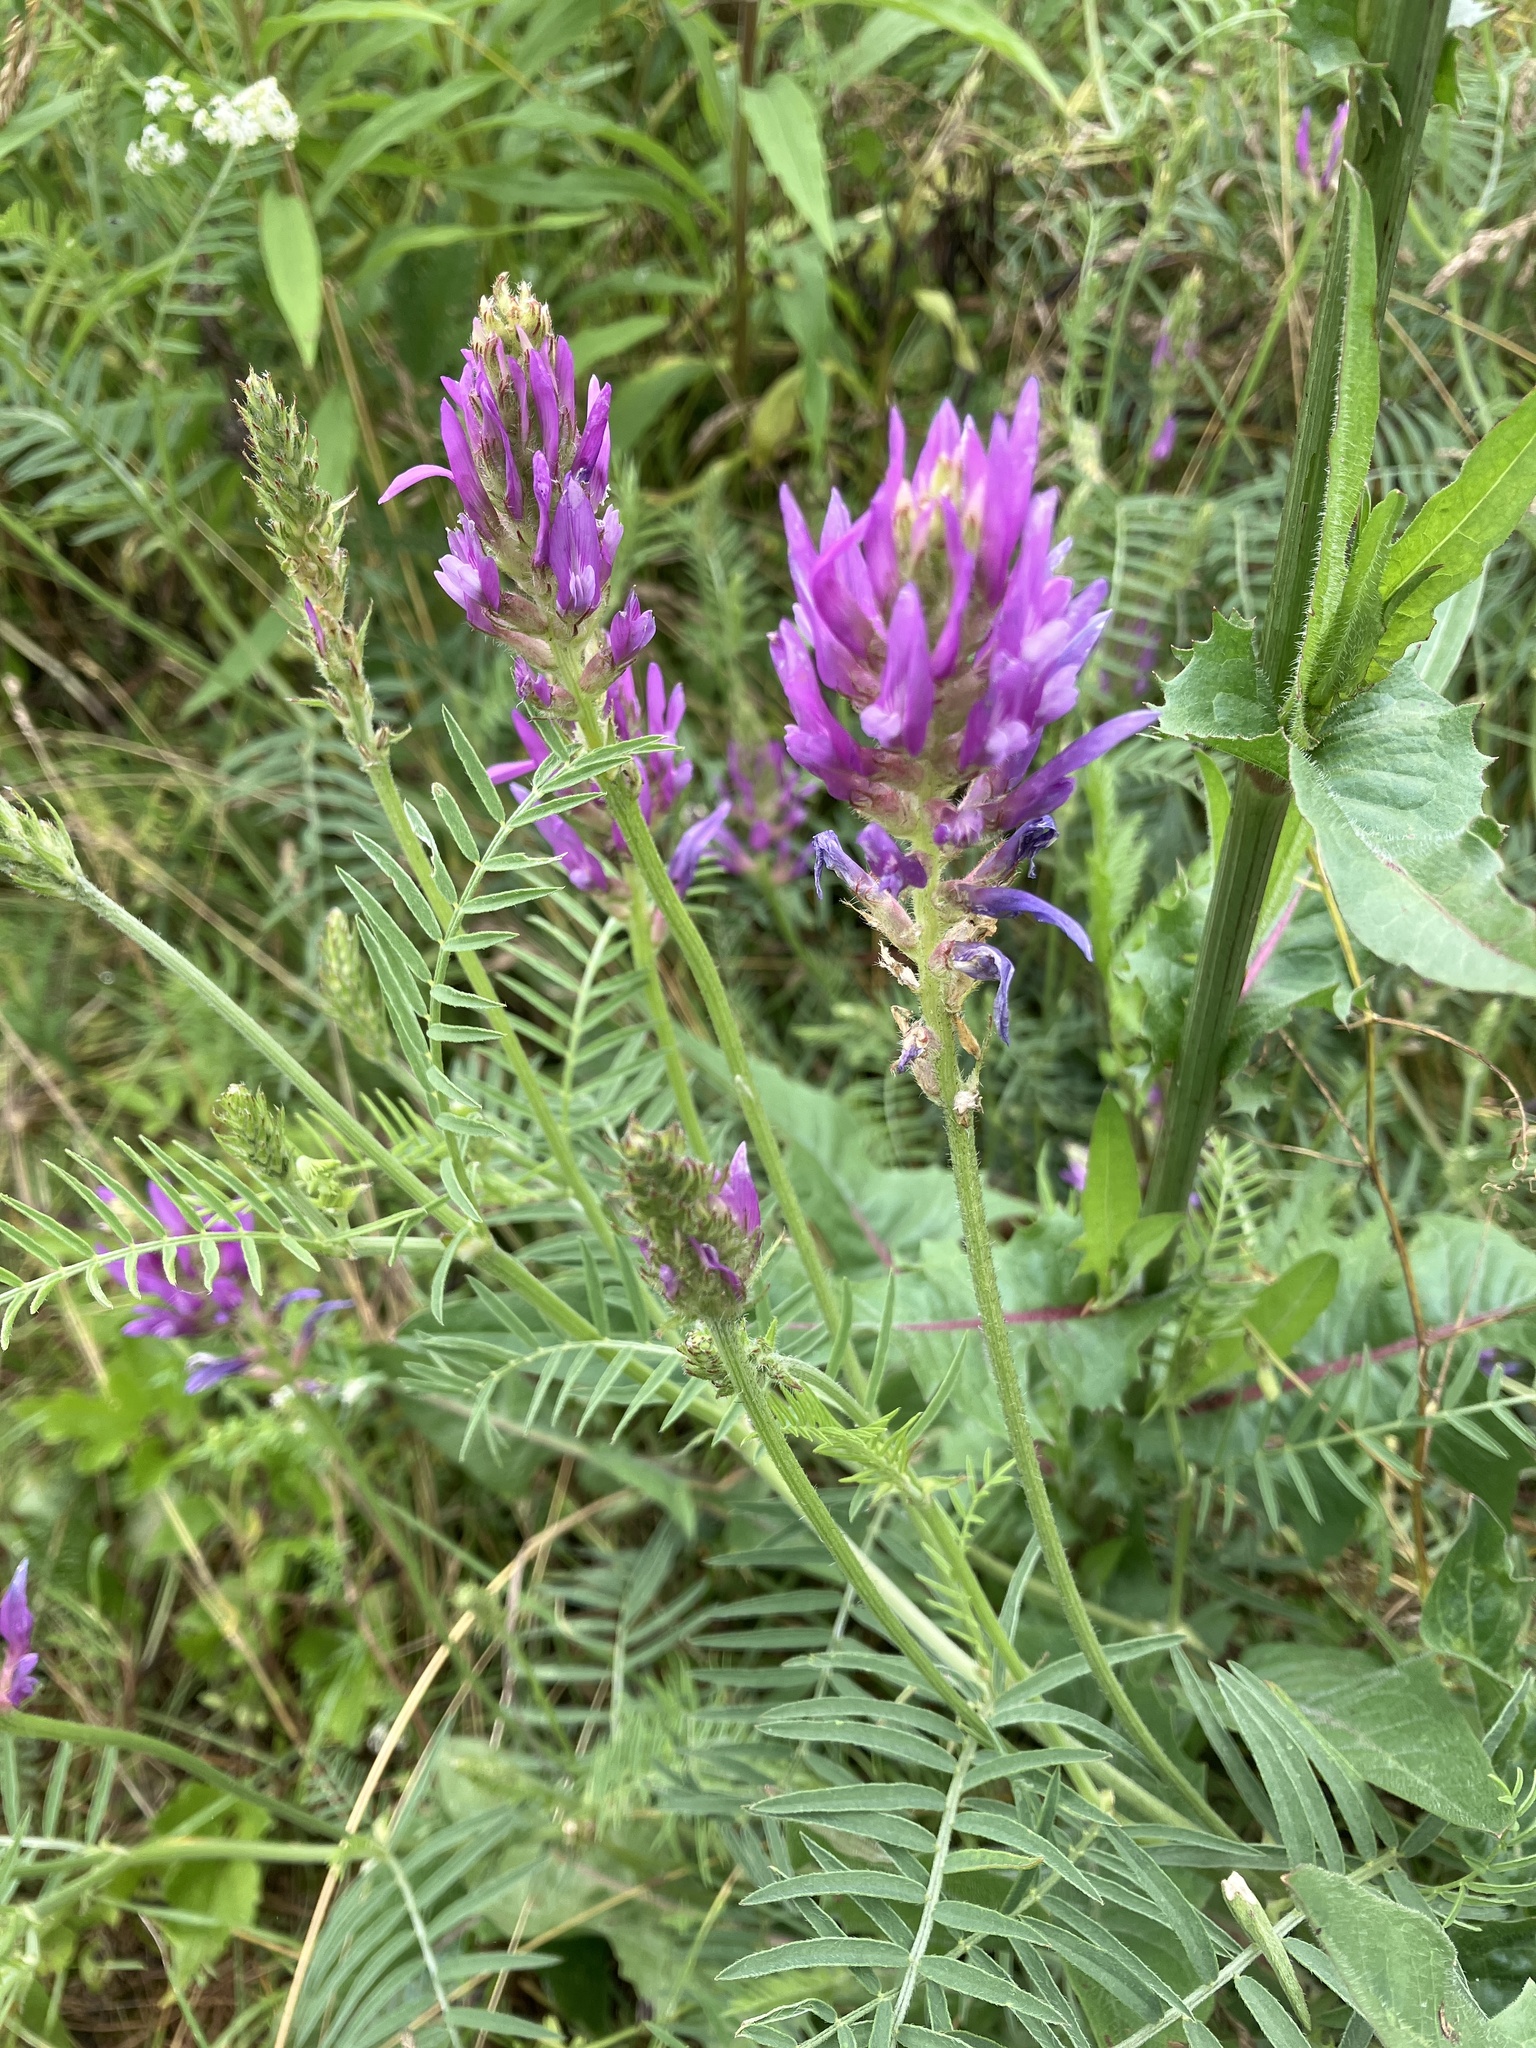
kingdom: Plantae
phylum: Tracheophyta
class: Magnoliopsida
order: Fabales
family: Fabaceae
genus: Astragalus
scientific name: Astragalus onobrychis
